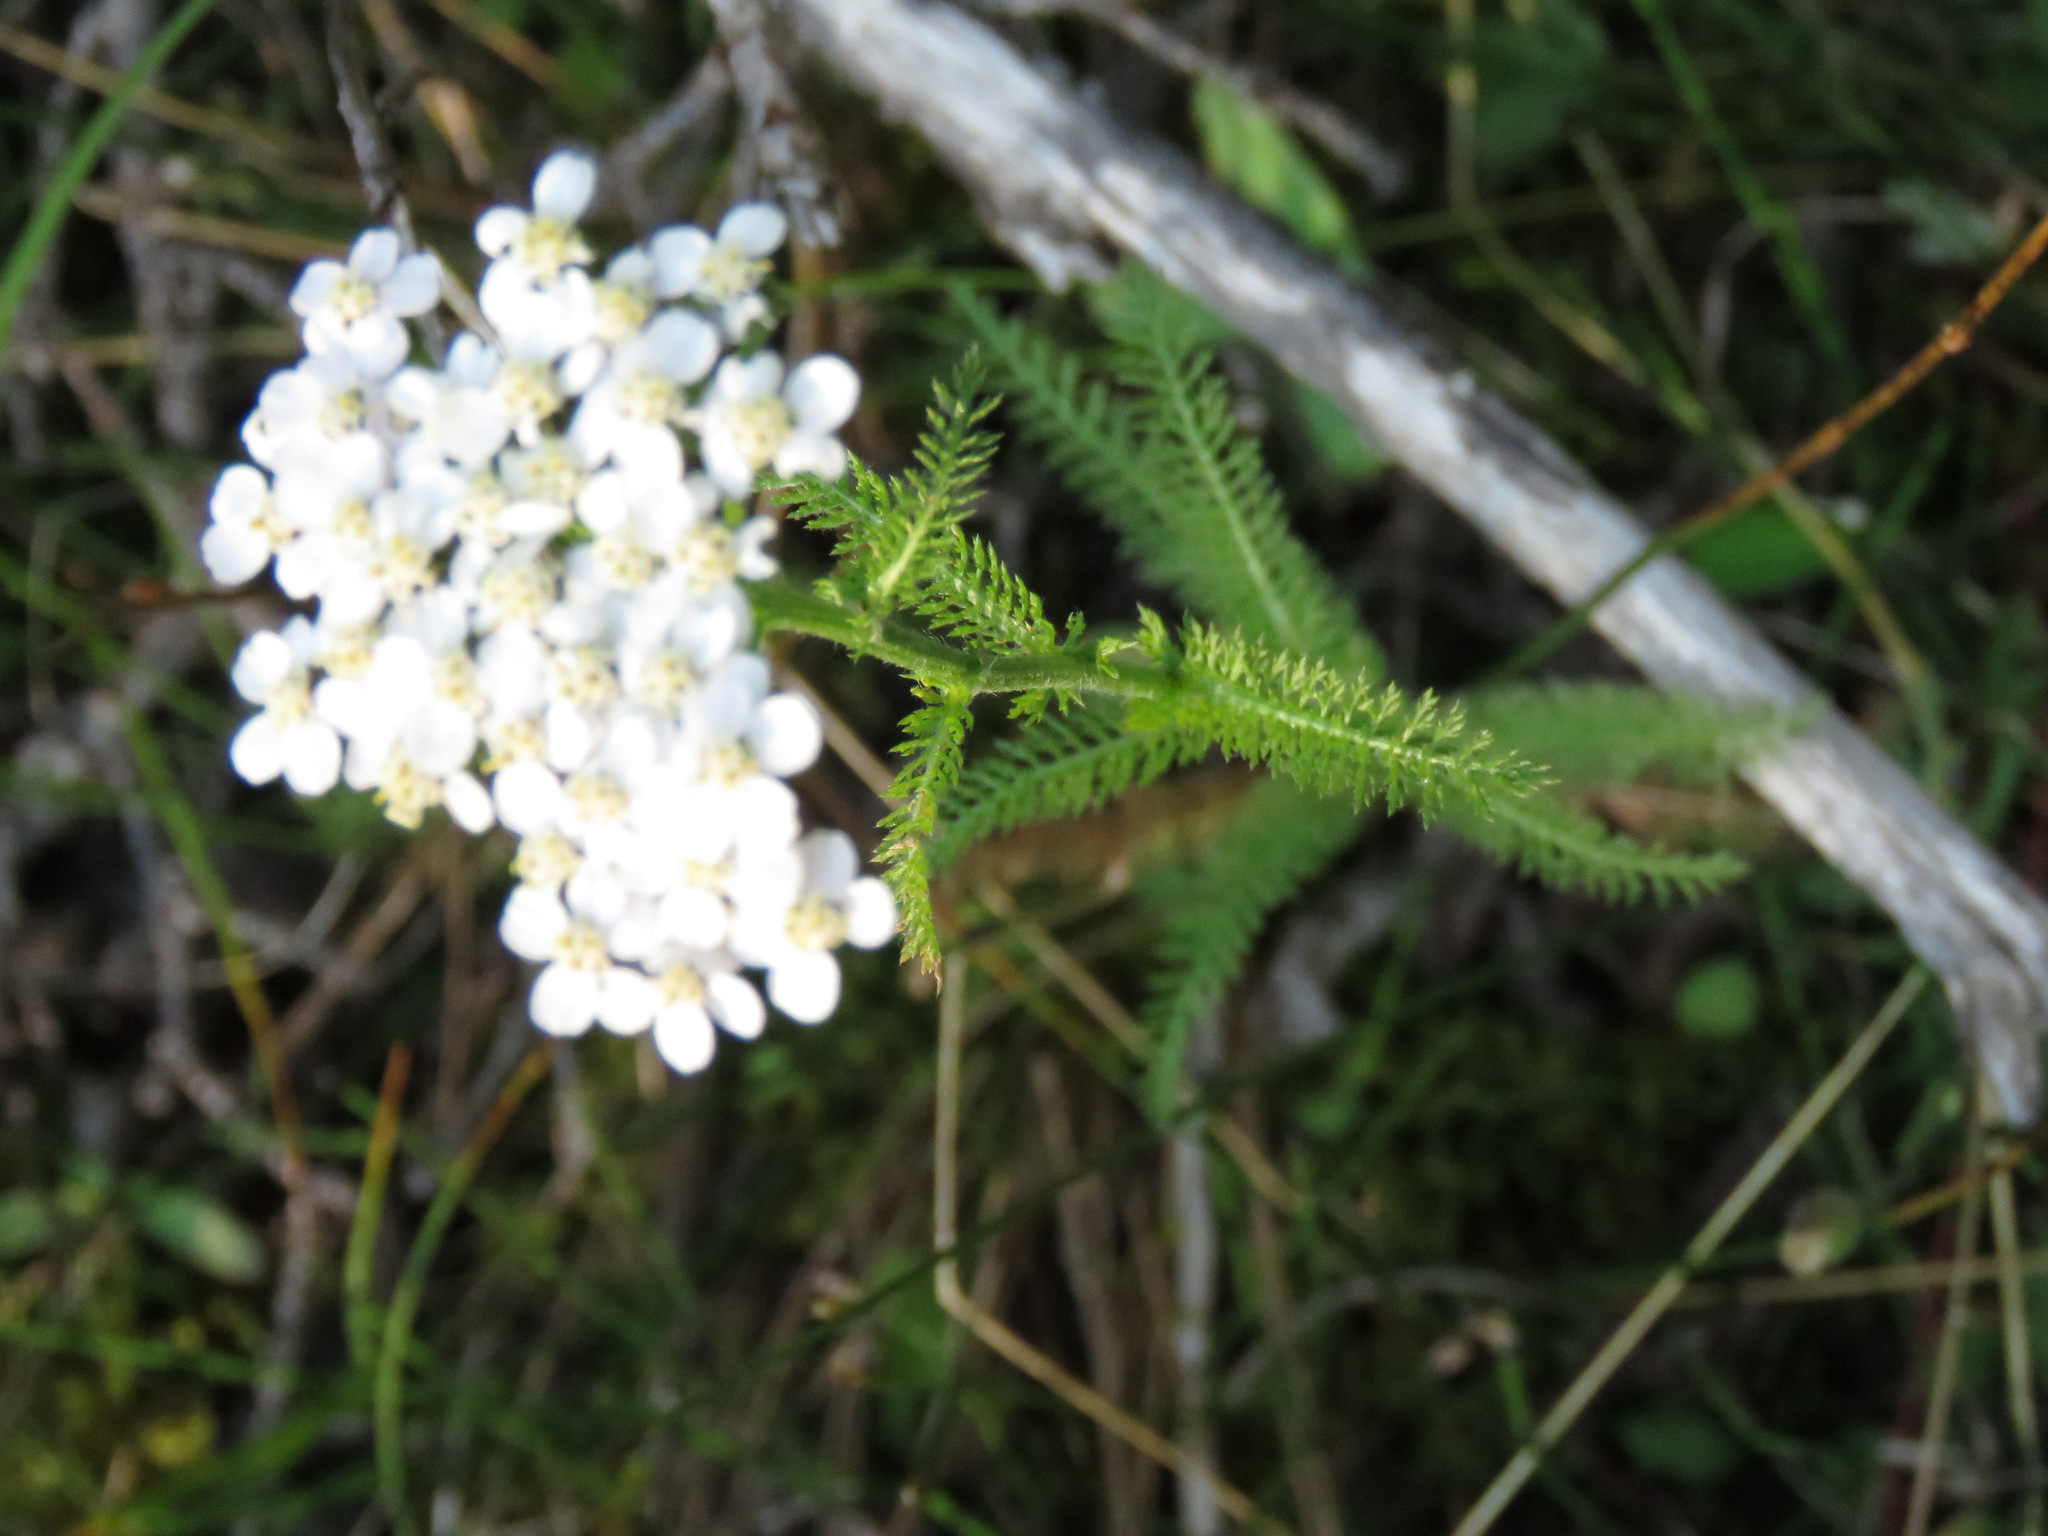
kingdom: Plantae
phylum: Tracheophyta
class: Magnoliopsida
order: Asterales
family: Asteraceae
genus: Achillea
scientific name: Achillea millefolium
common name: Yarrow
